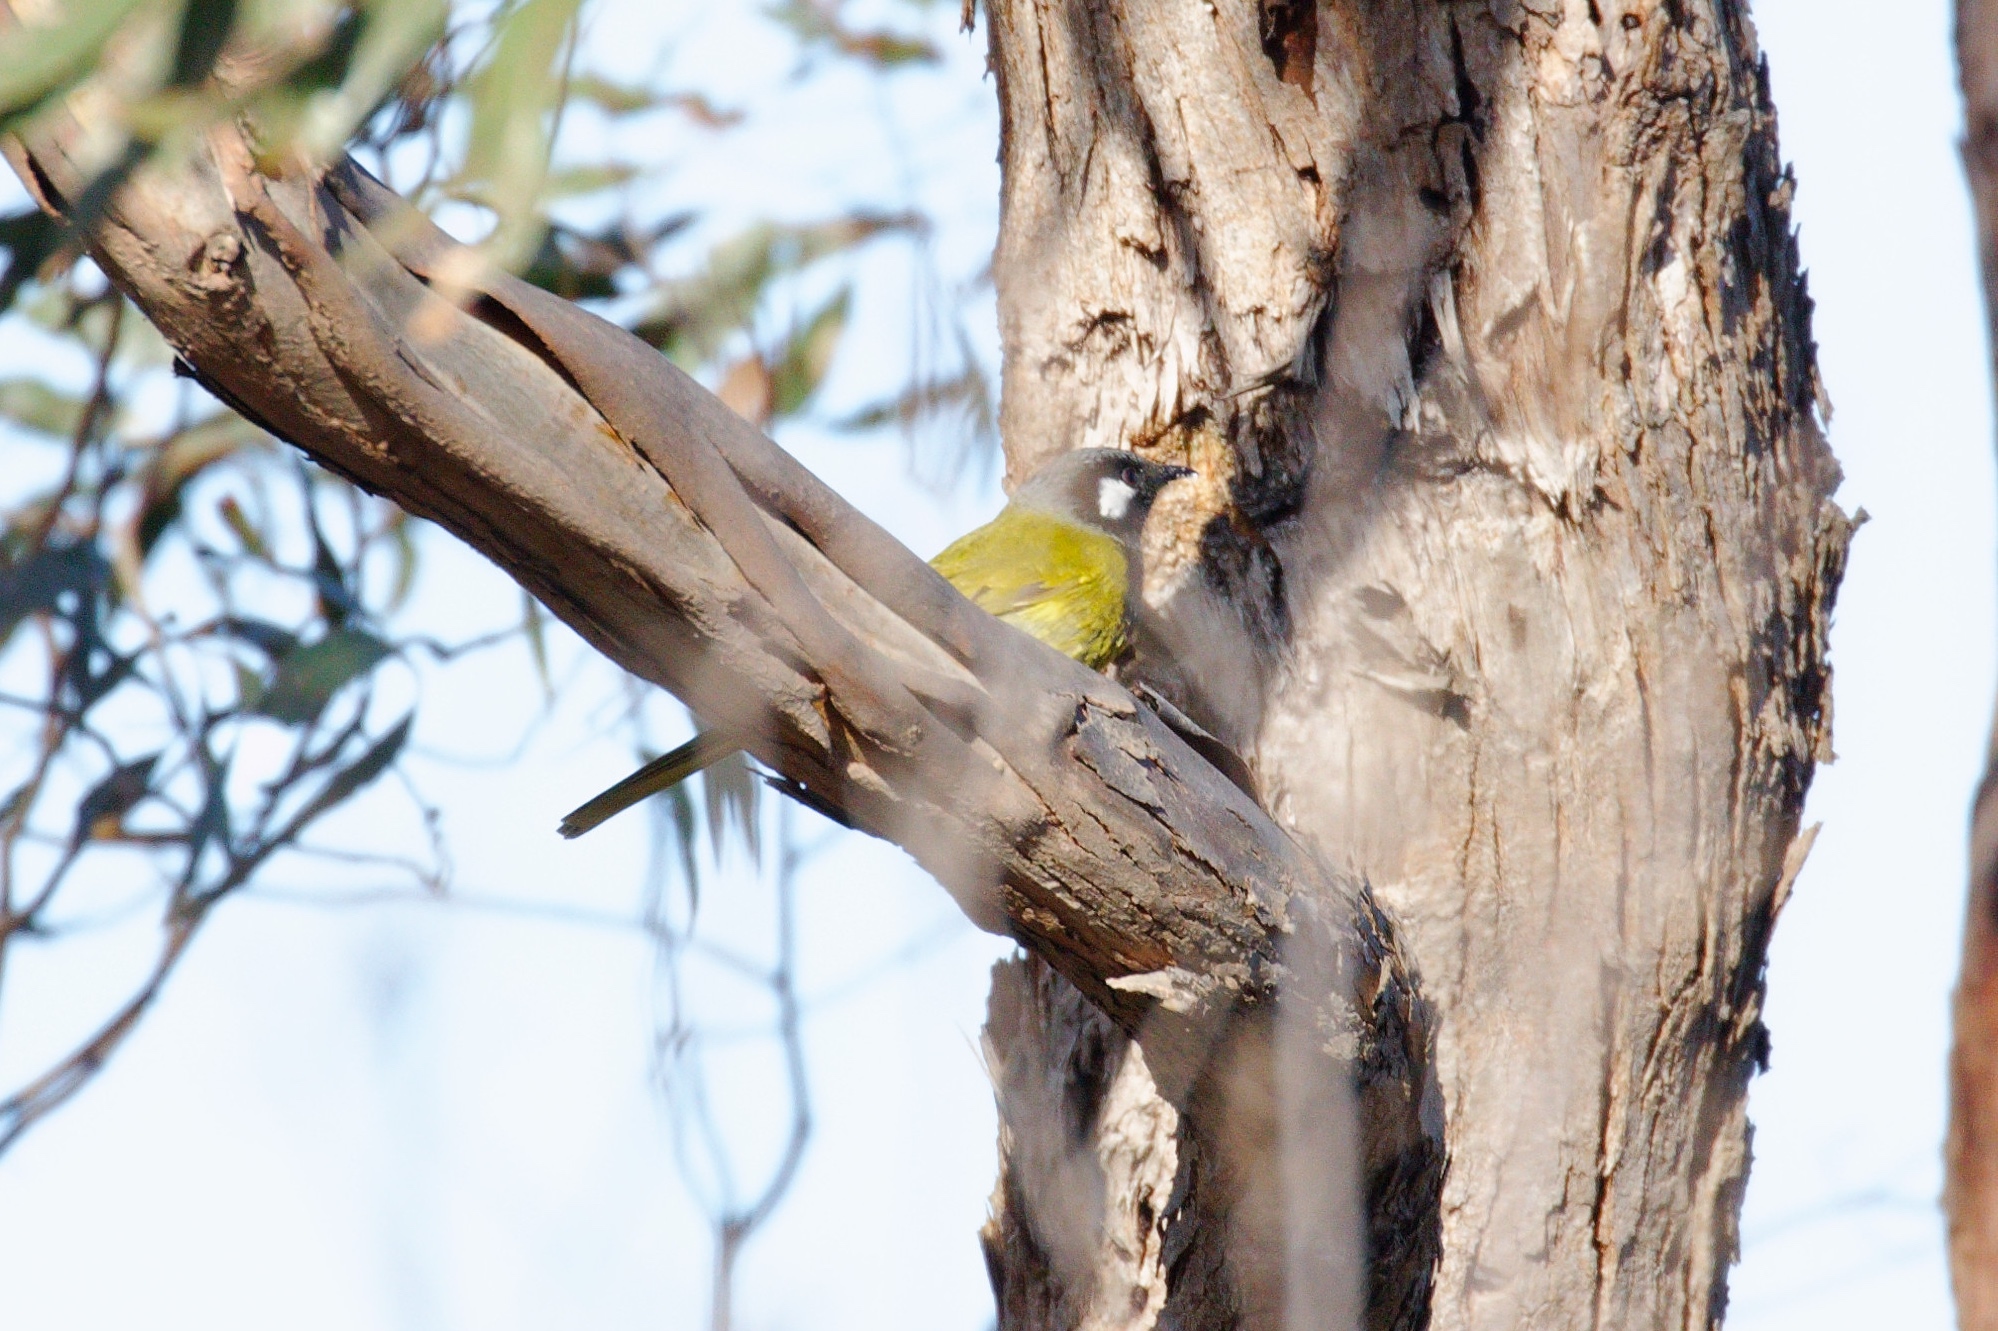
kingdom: Animalia
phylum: Chordata
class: Aves
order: Passeriformes
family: Meliphagidae
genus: Nesoptilotis
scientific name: Nesoptilotis leucotis
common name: White-eared honeyeater
